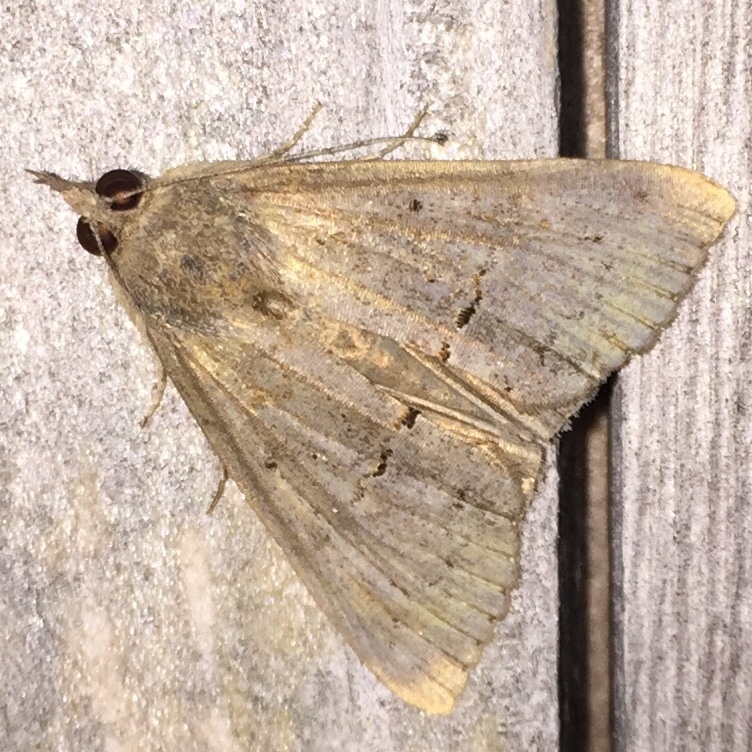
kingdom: Animalia
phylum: Arthropoda
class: Insecta
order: Lepidoptera
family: Erebidae
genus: Hypena
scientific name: Hypena scabra
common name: Green cloverworm
